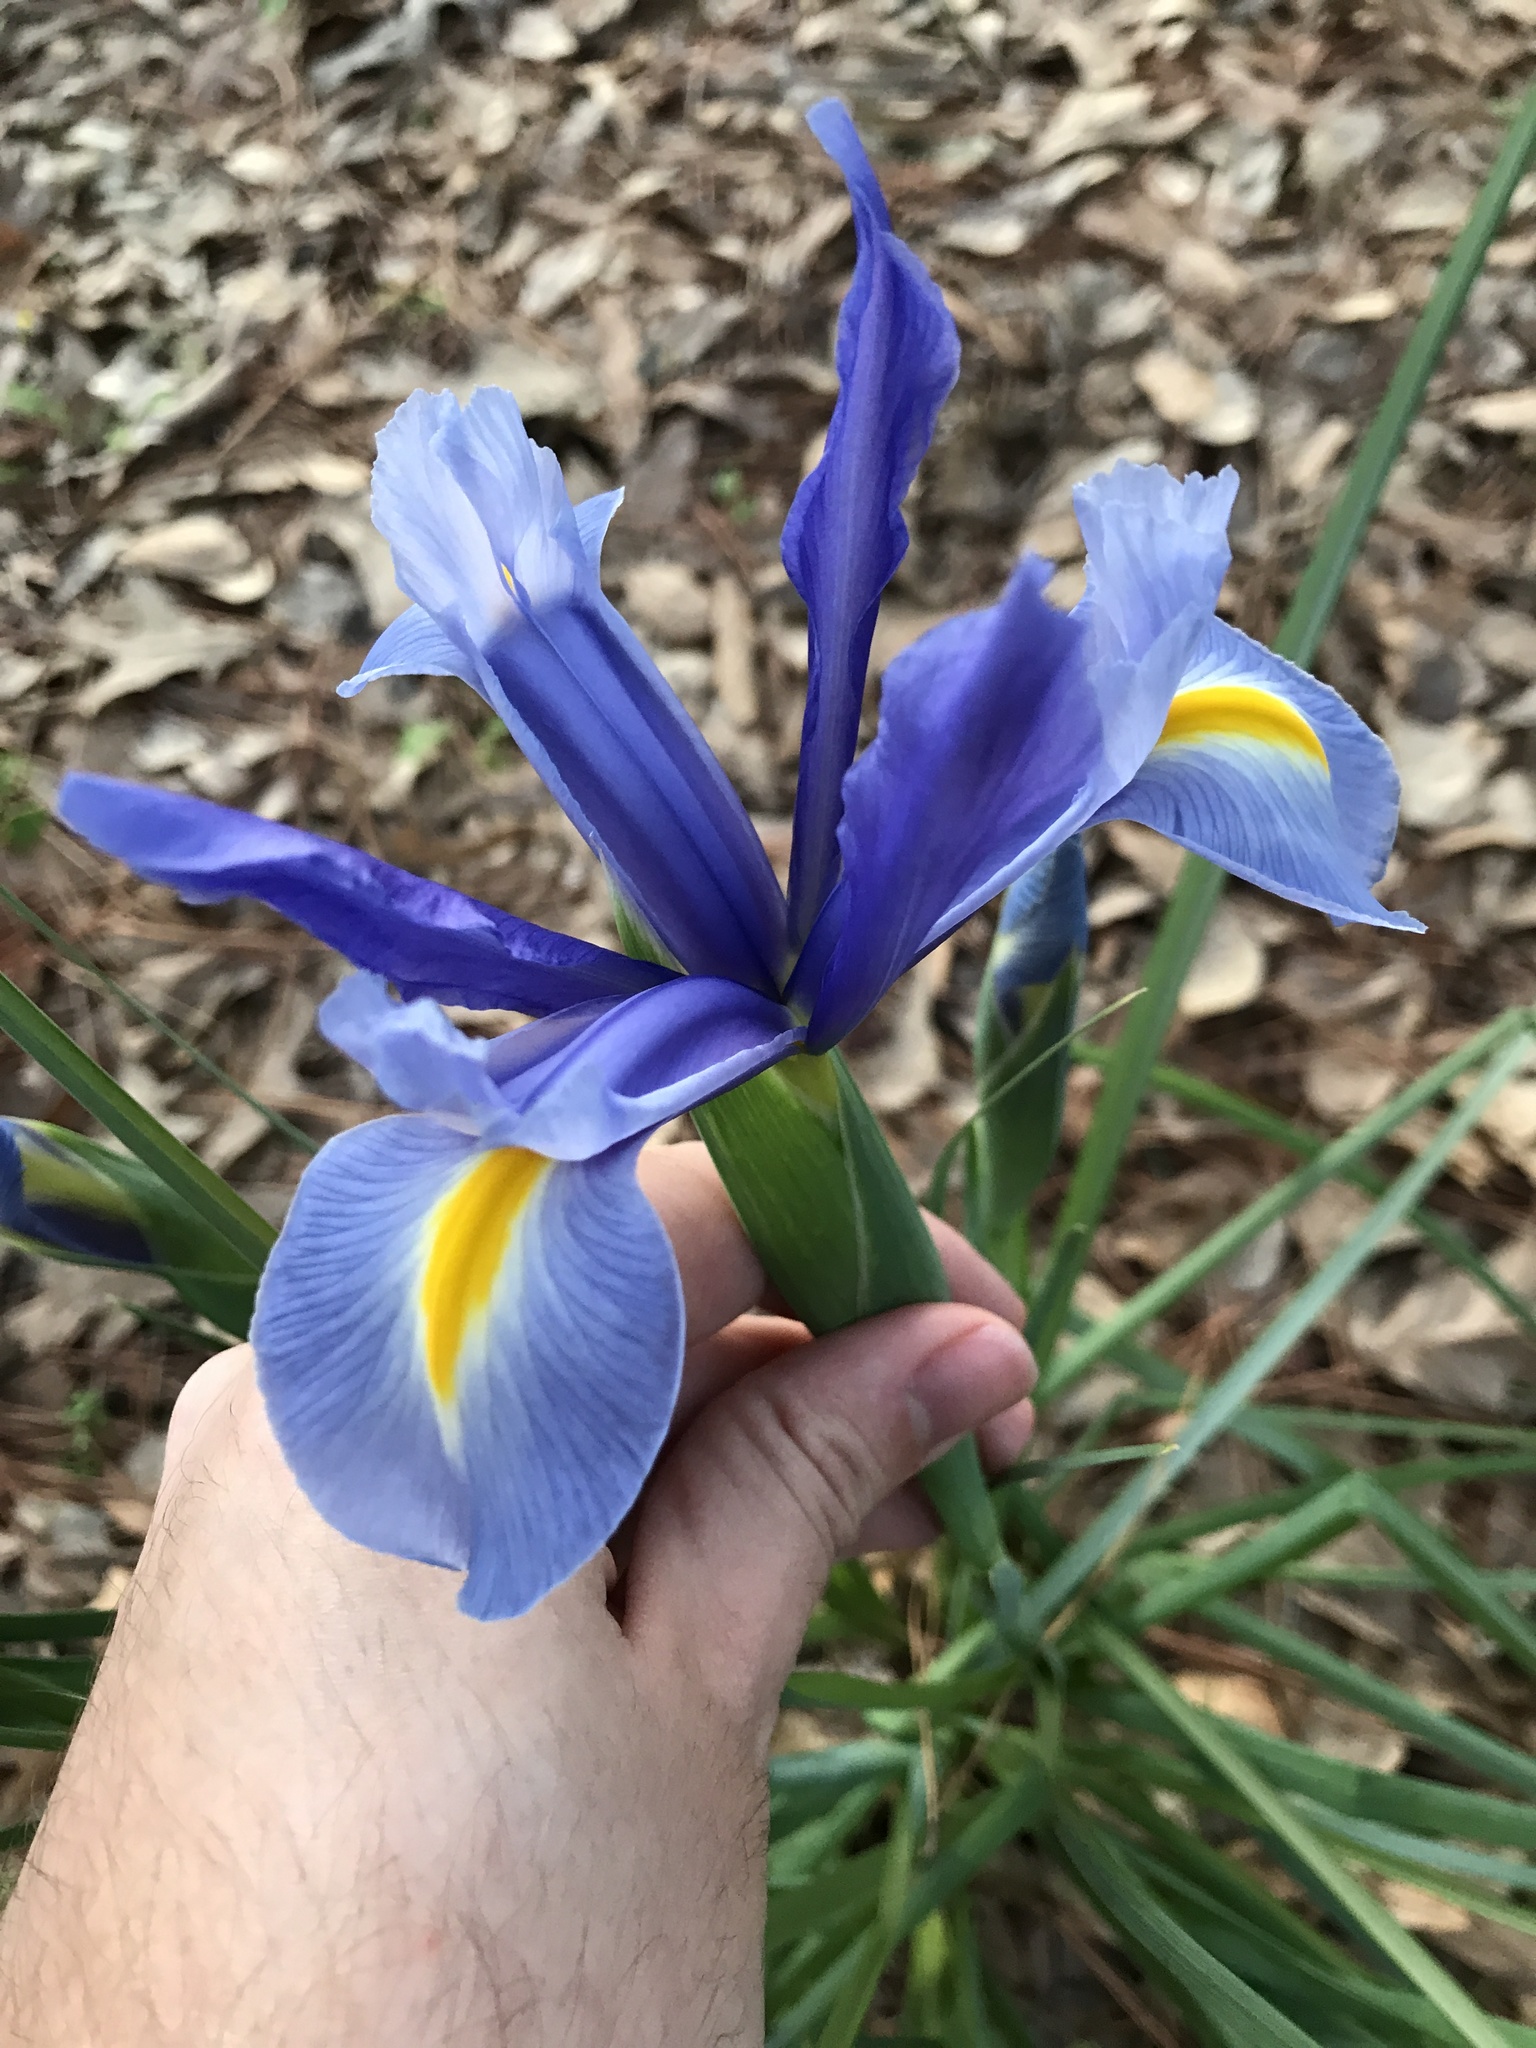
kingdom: Plantae
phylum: Tracheophyta
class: Liliopsida
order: Asparagales
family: Iridaceae
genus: Iris
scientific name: Iris hollandica
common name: Dutch iris
